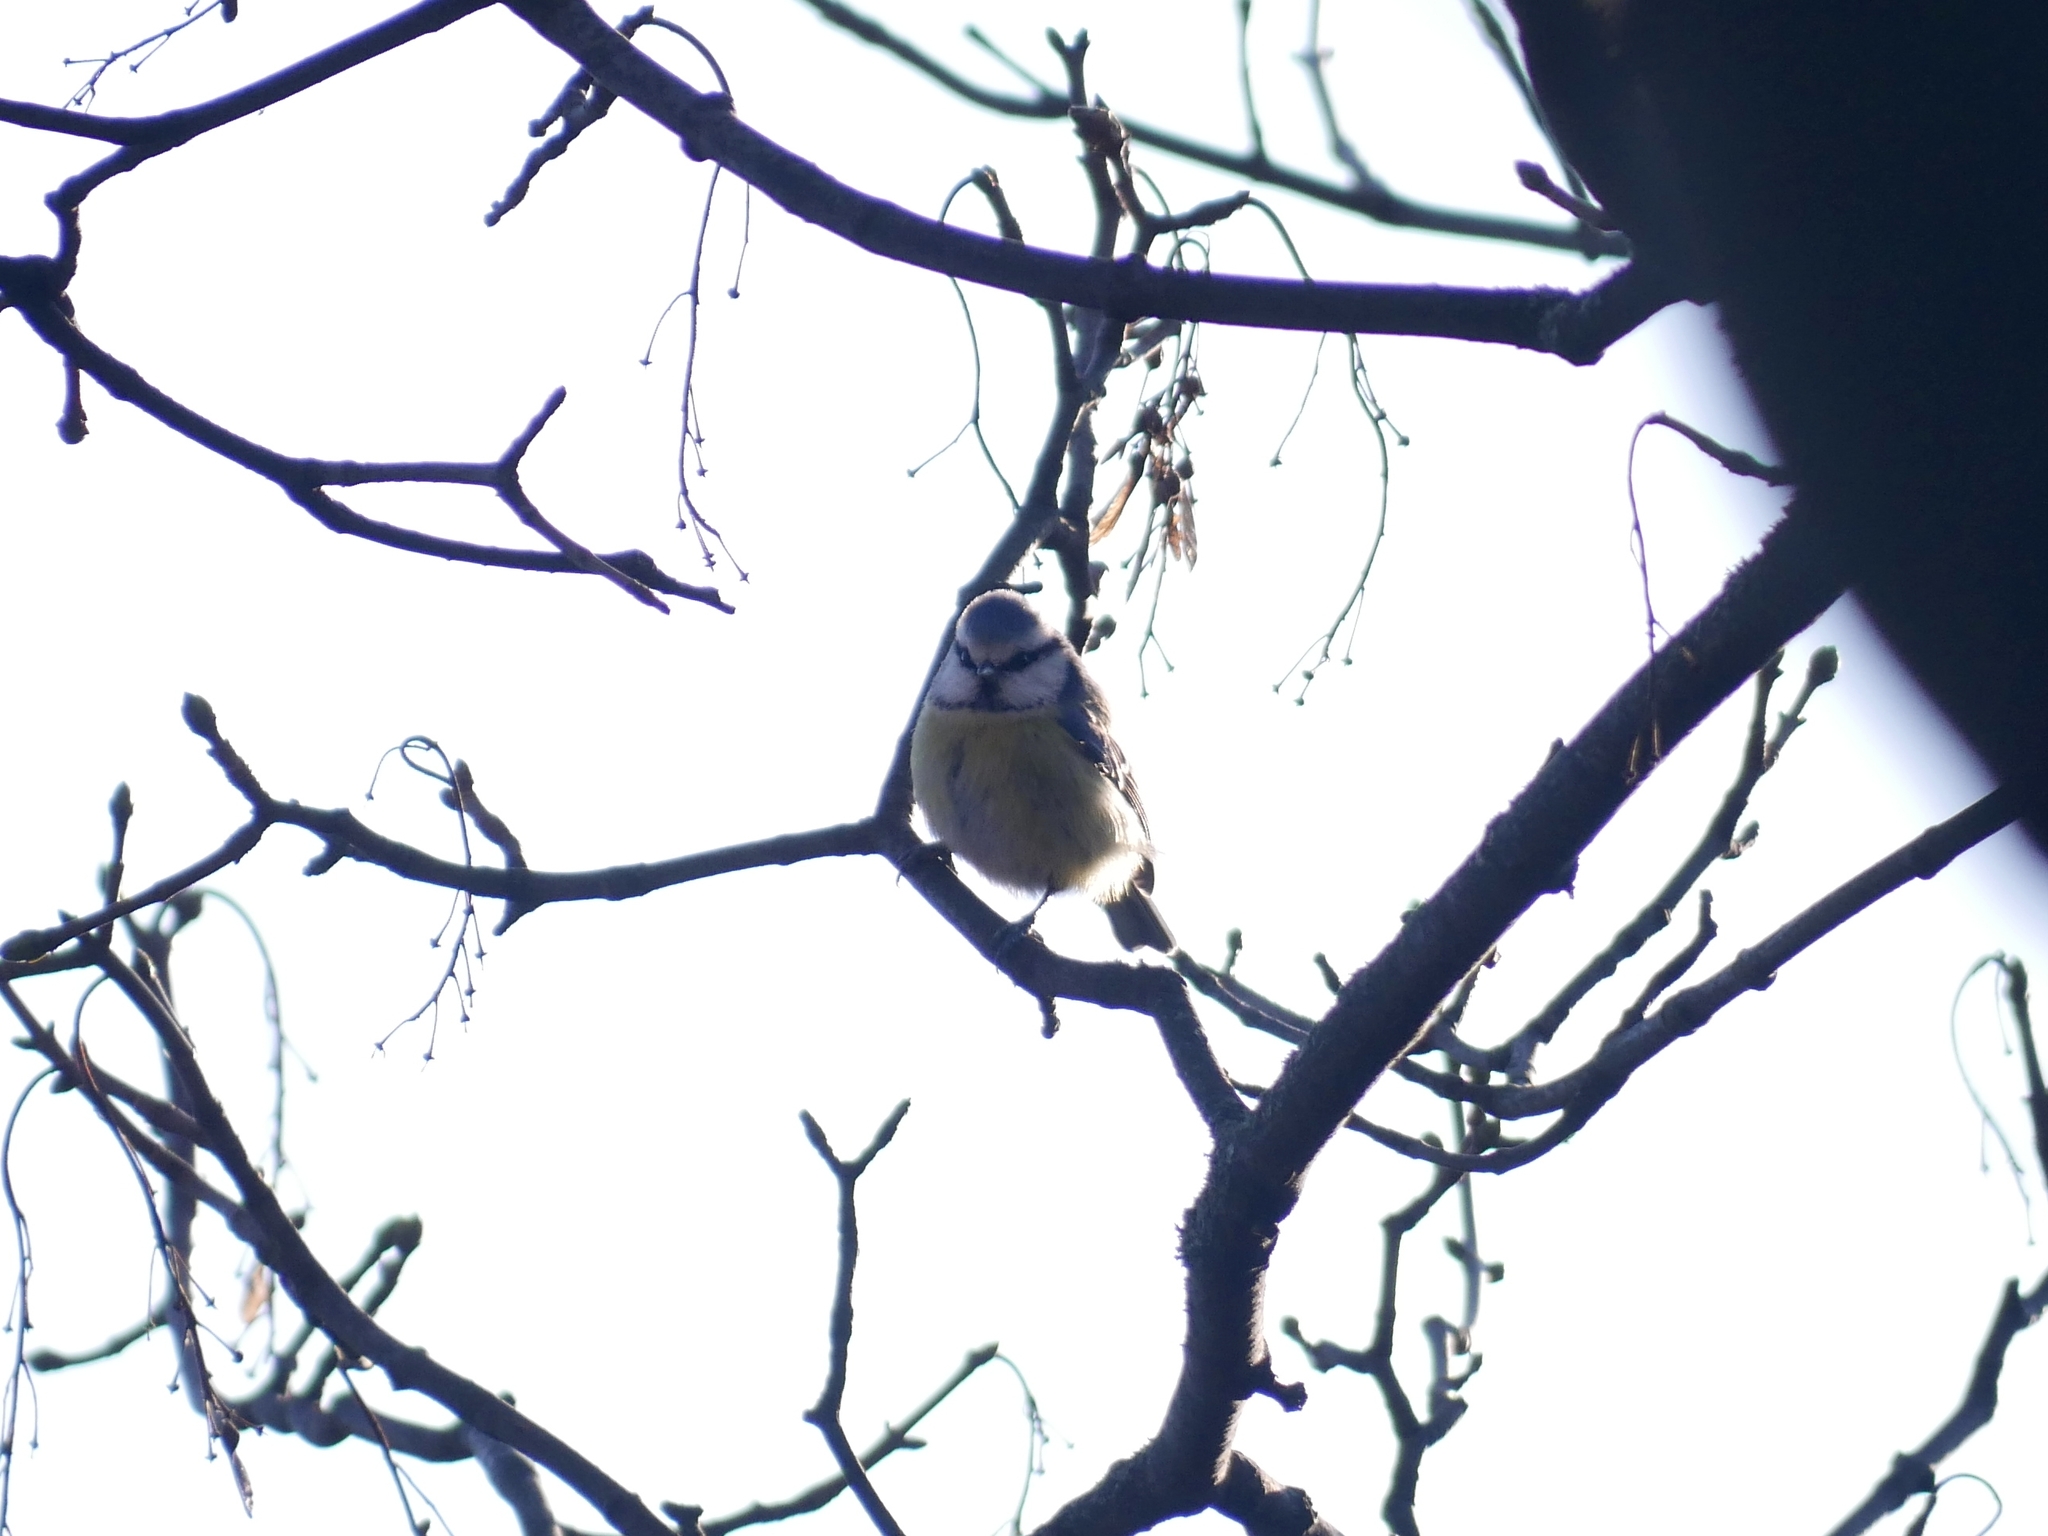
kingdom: Animalia
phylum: Chordata
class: Aves
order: Passeriformes
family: Paridae
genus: Cyanistes
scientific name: Cyanistes caeruleus
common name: Eurasian blue tit
